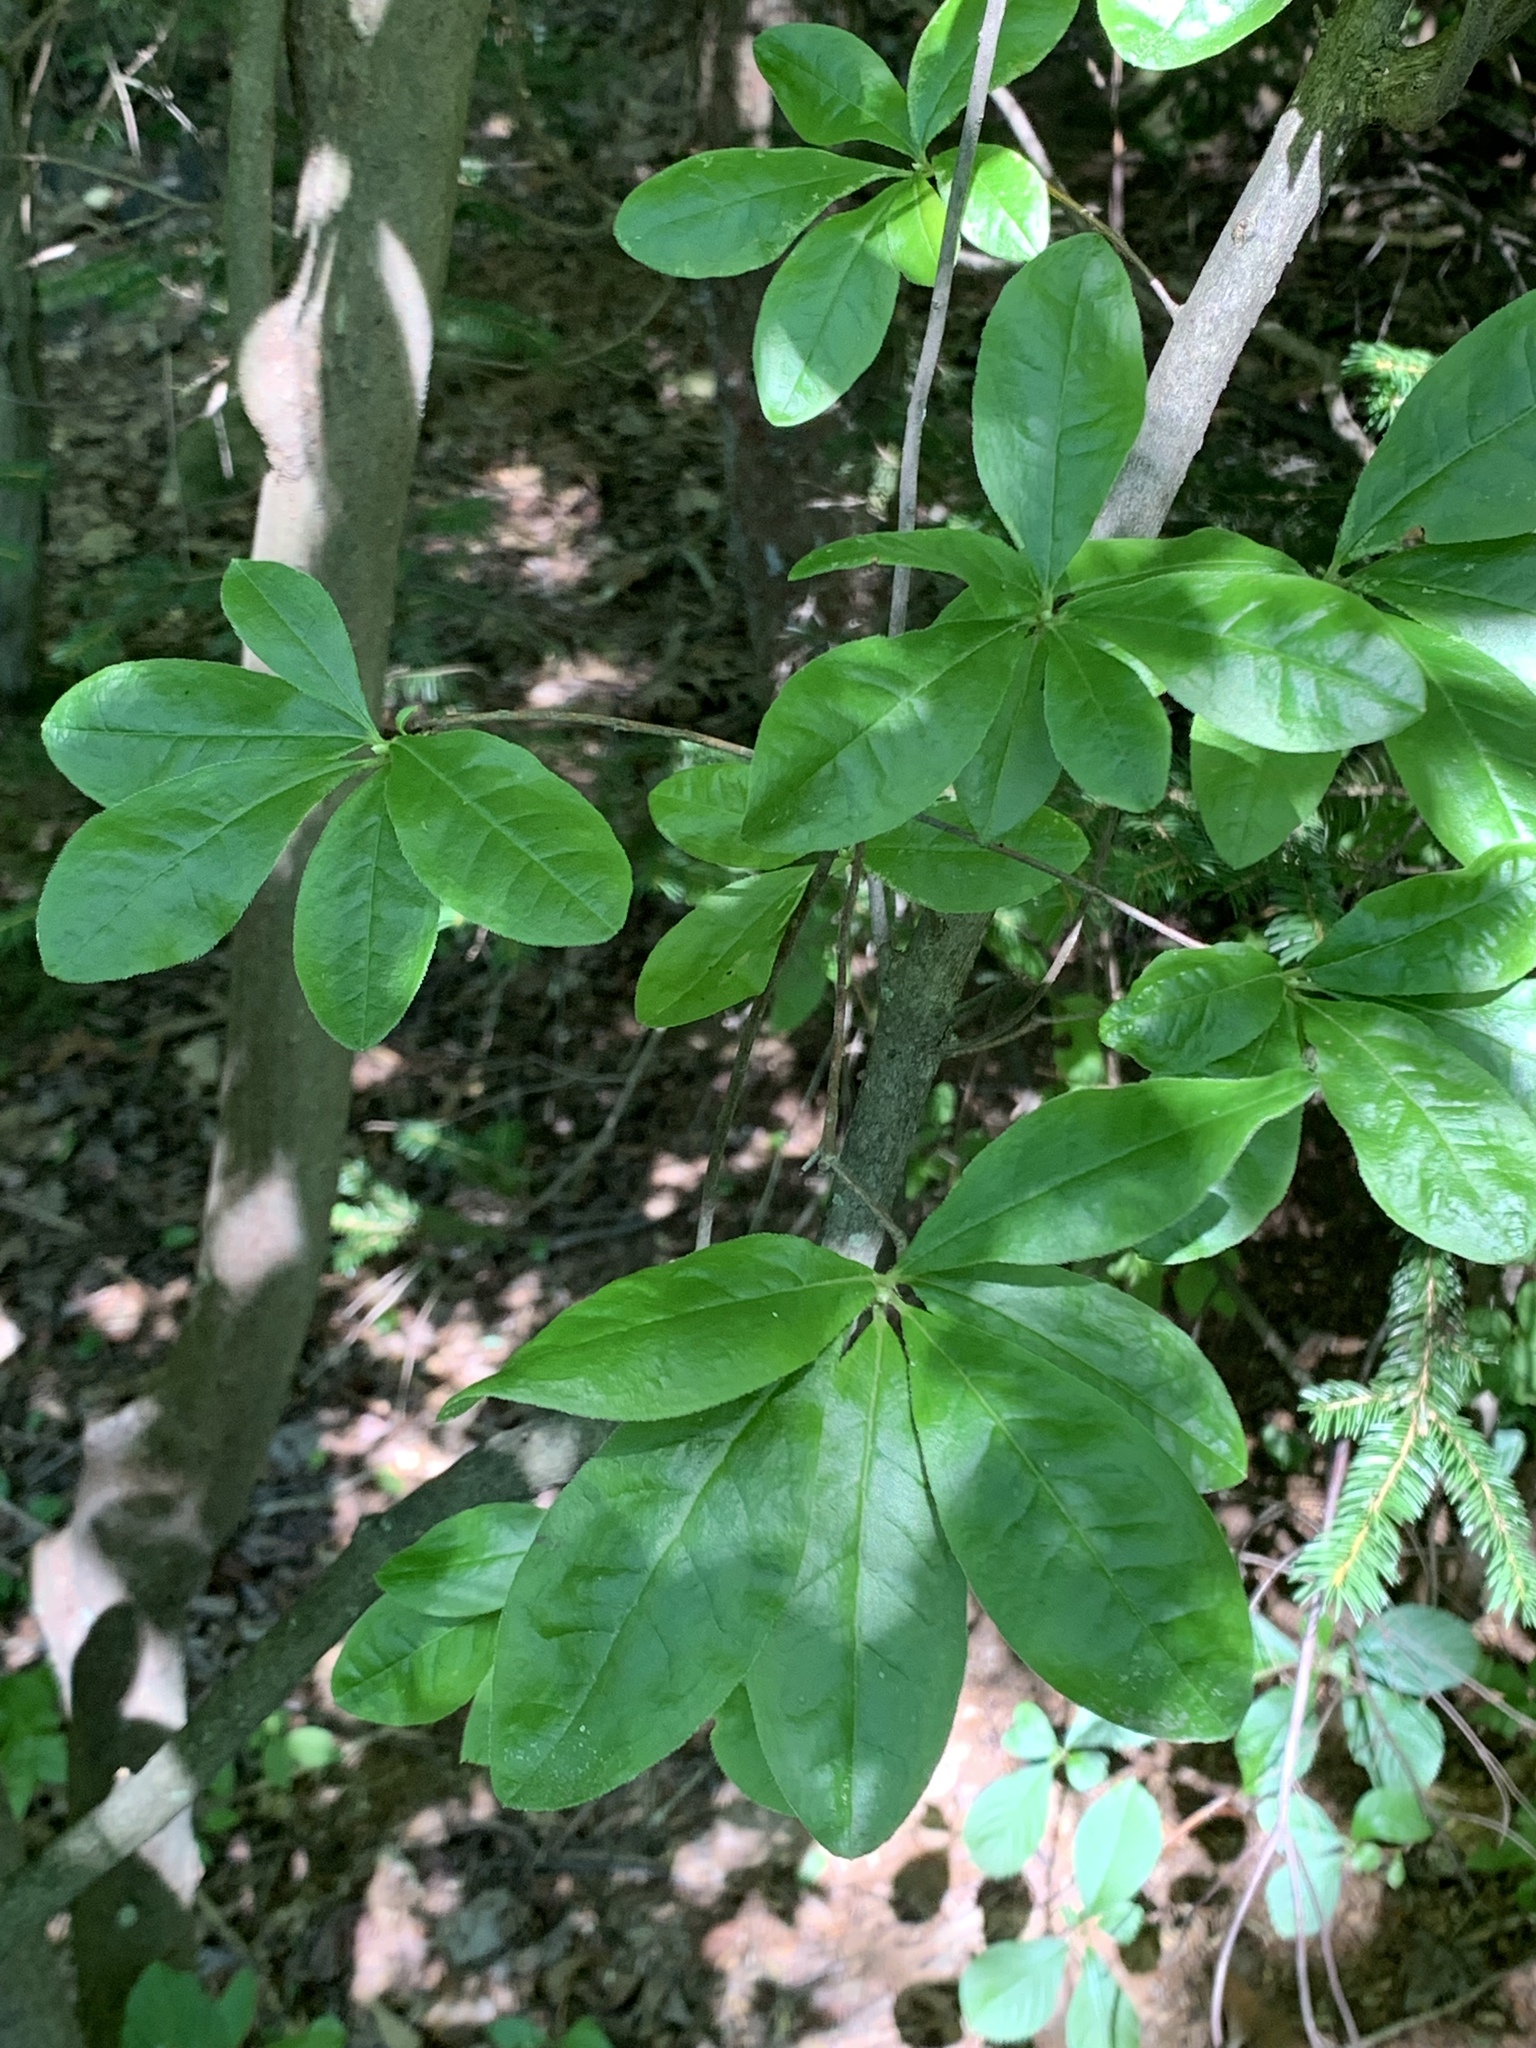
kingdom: Plantae
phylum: Tracheophyta
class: Magnoliopsida
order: Ericales
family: Ericaceae
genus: Rhododendron
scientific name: Rhododendron viscosum
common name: Clammy azalea
